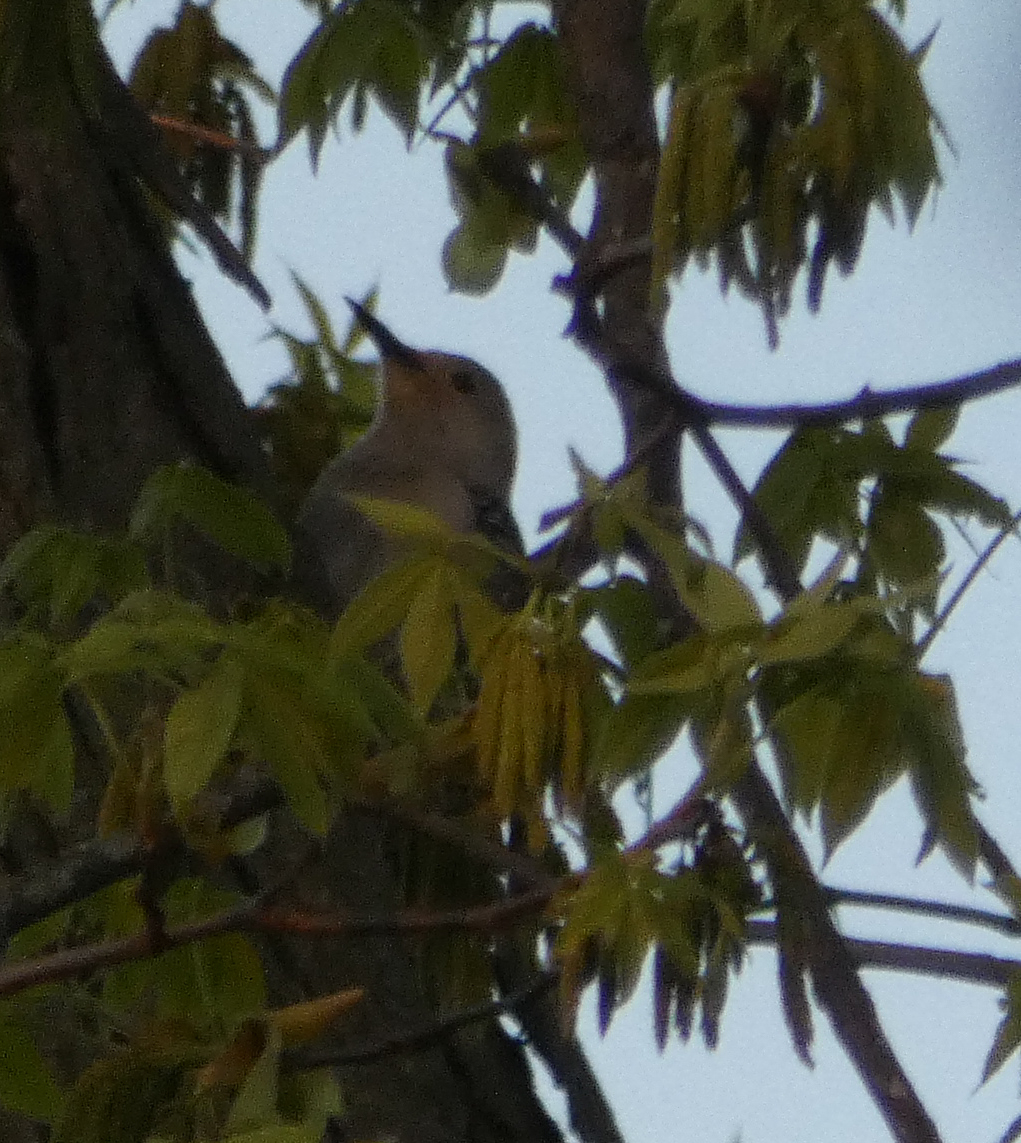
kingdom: Animalia
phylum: Chordata
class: Aves
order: Piciformes
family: Picidae
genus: Melanerpes
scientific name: Melanerpes carolinus
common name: Red-bellied woodpecker
